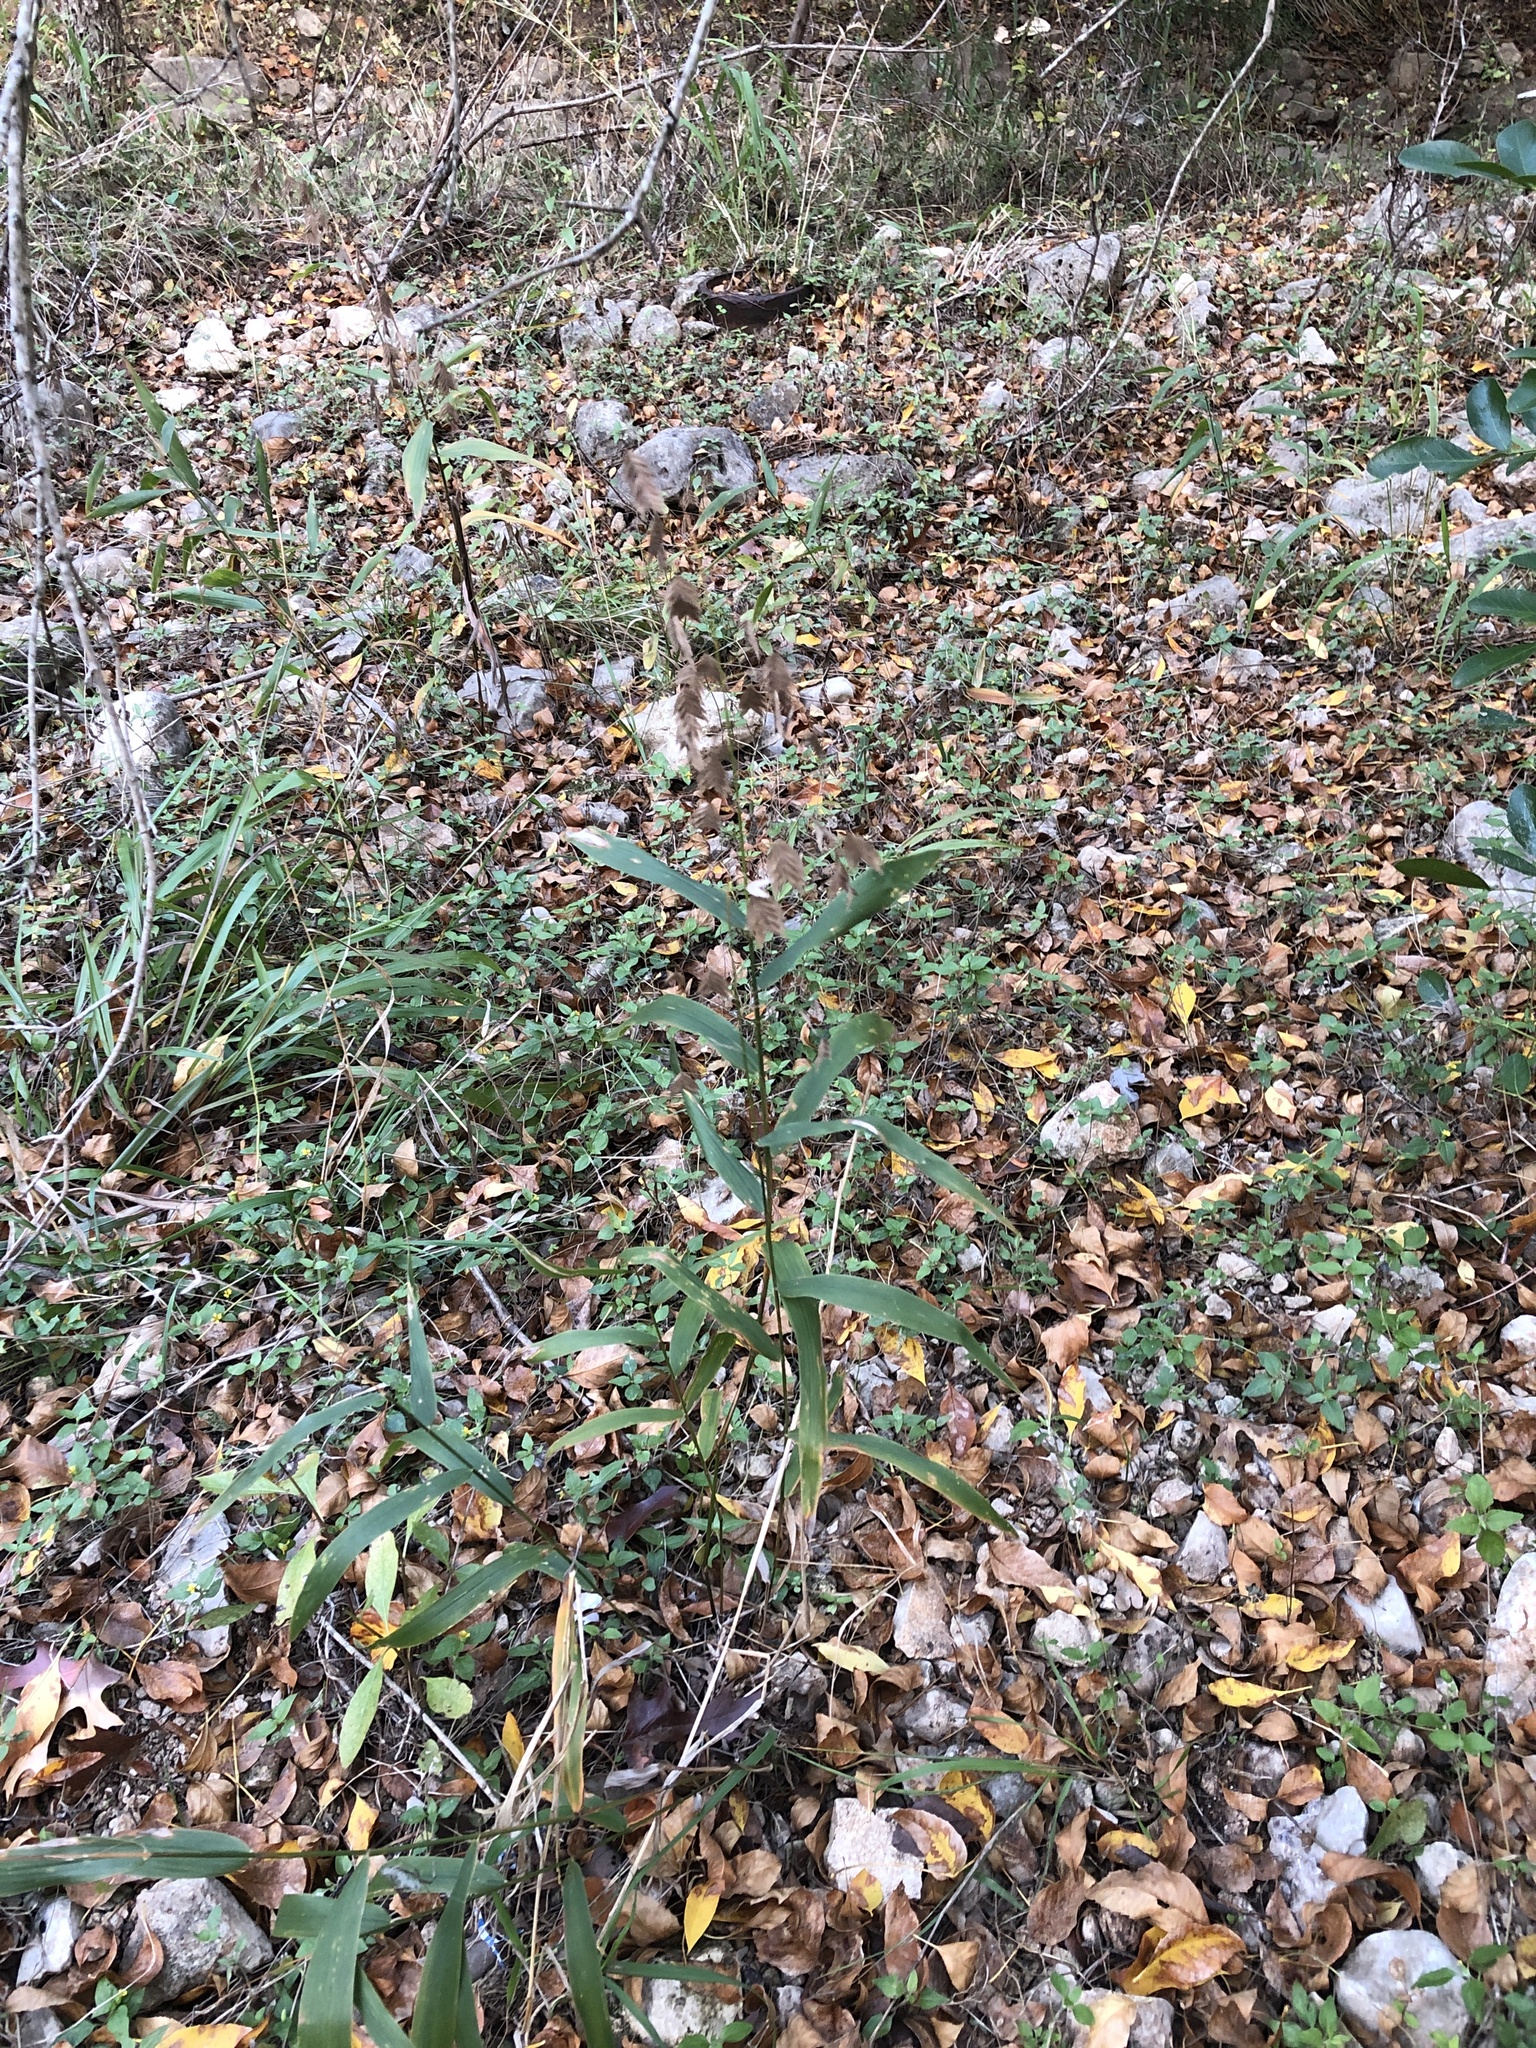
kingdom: Plantae
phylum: Tracheophyta
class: Liliopsida
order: Poales
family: Poaceae
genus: Chasmanthium
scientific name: Chasmanthium latifolium
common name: Broad-leaved chasmanthium
